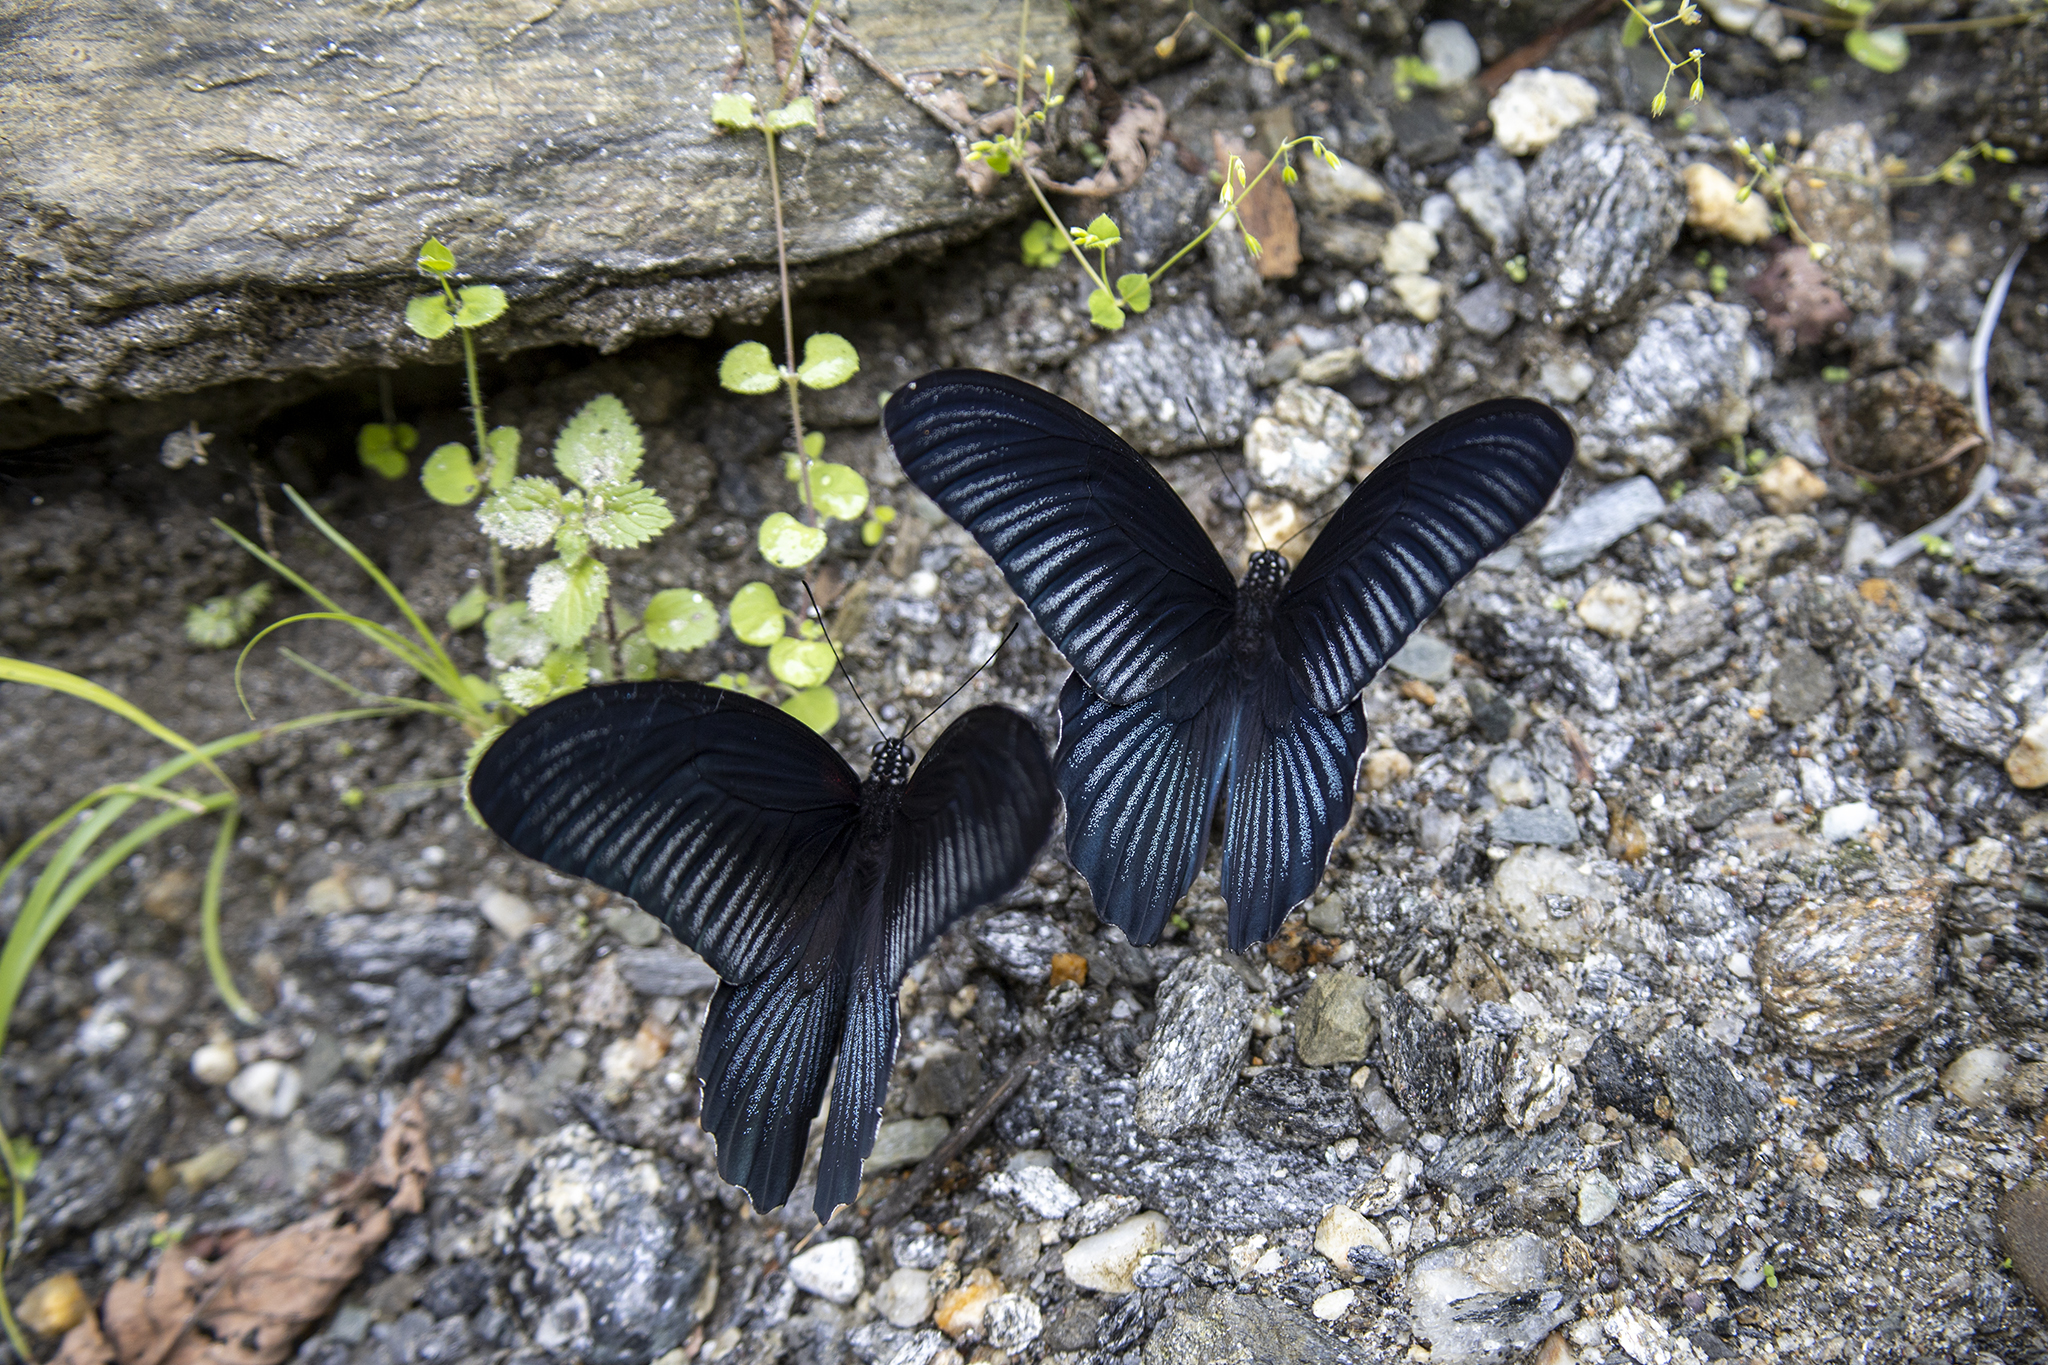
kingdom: Animalia
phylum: Arthropoda
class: Insecta
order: Lepidoptera
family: Papilionidae
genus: Papilio
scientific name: Papilio memnon
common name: Great mormon
